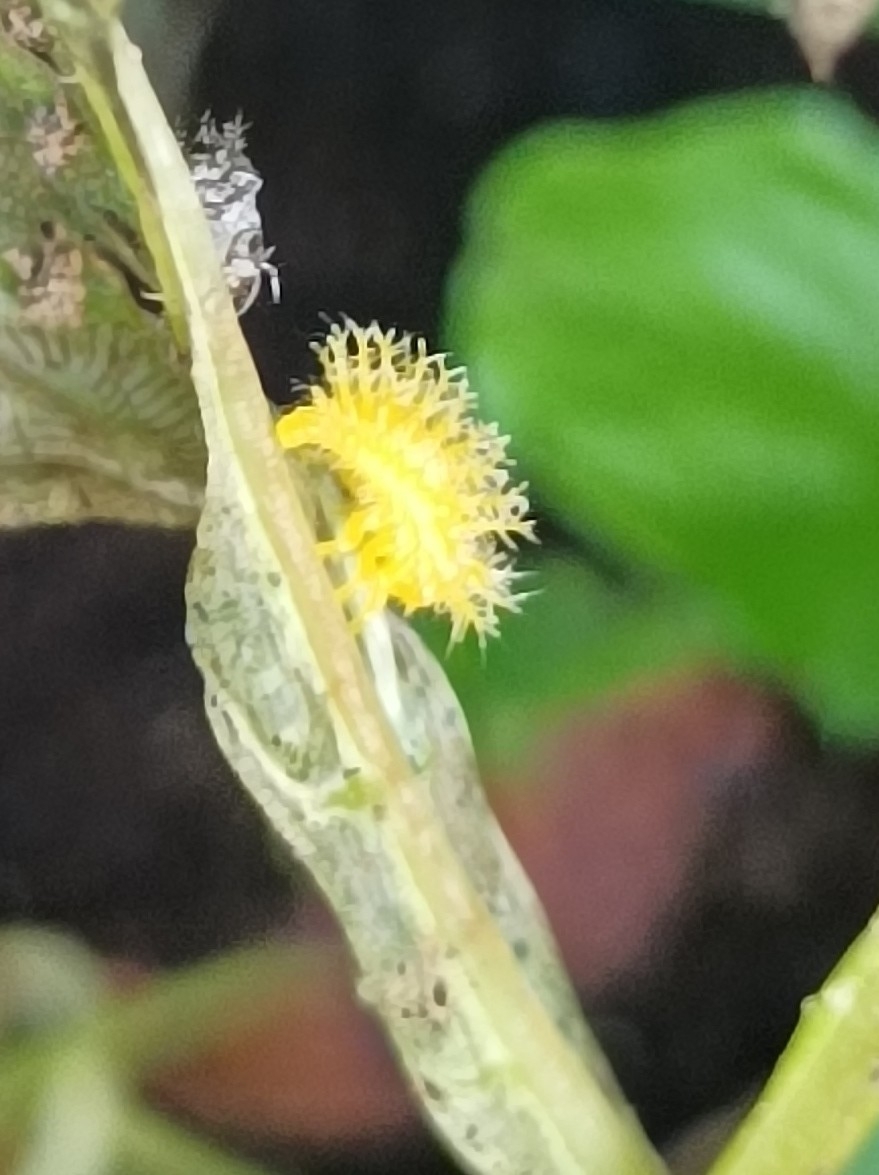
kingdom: Animalia
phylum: Arthropoda
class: Insecta
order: Coleoptera
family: Coccinellidae
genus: Henosepilachna
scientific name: Henosepilachna vigintioctopunctata
